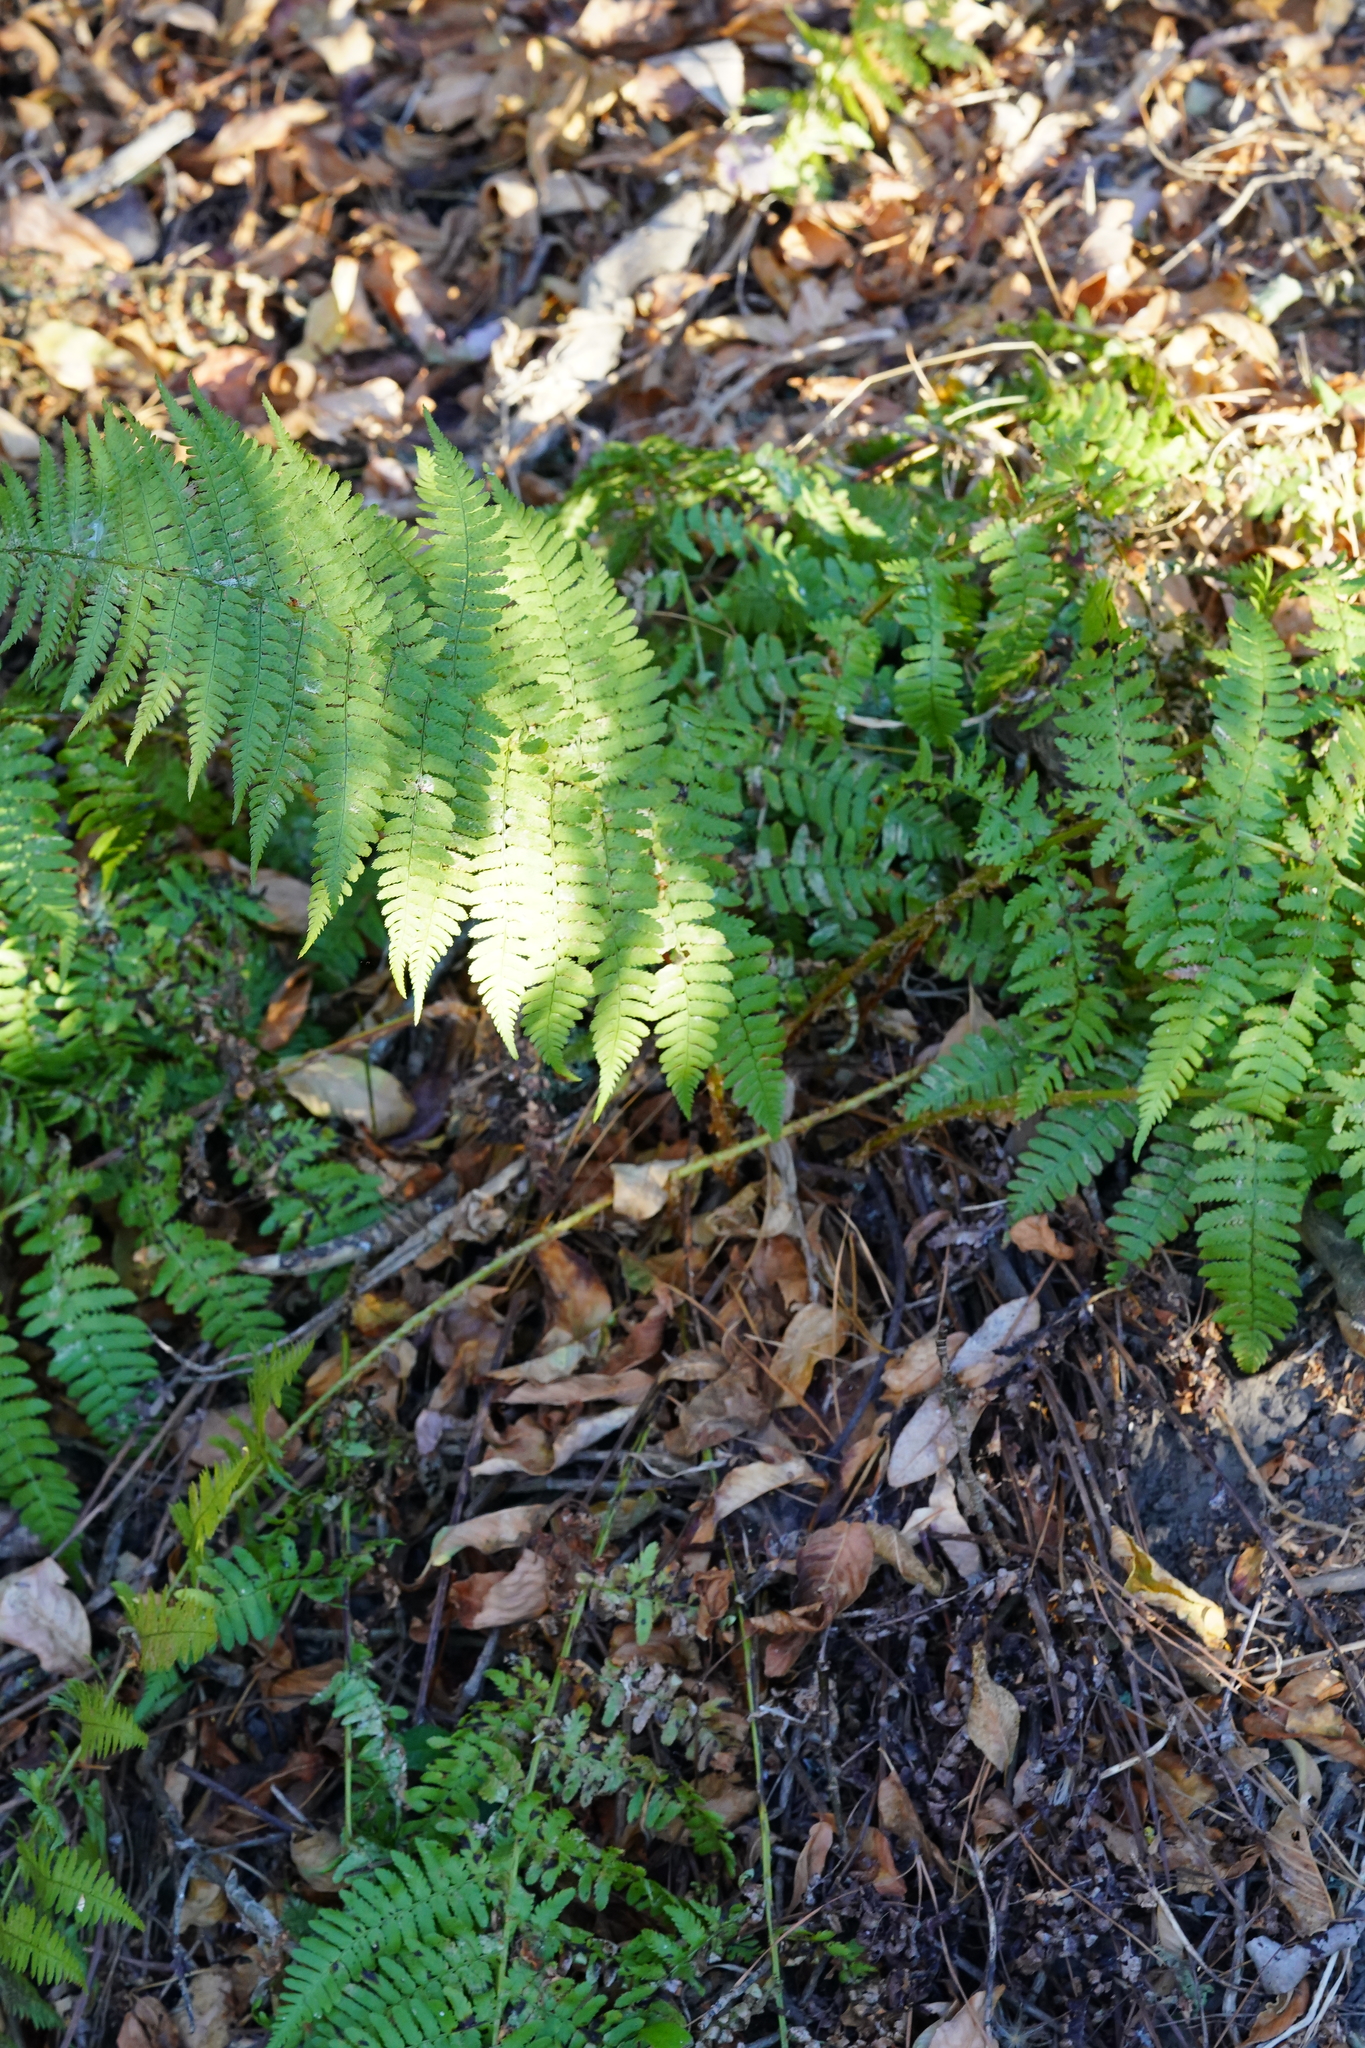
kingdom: Plantae
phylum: Tracheophyta
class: Polypodiopsida
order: Polypodiales
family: Dryopteridaceae
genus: Dryopteris
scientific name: Dryopteris arguta
